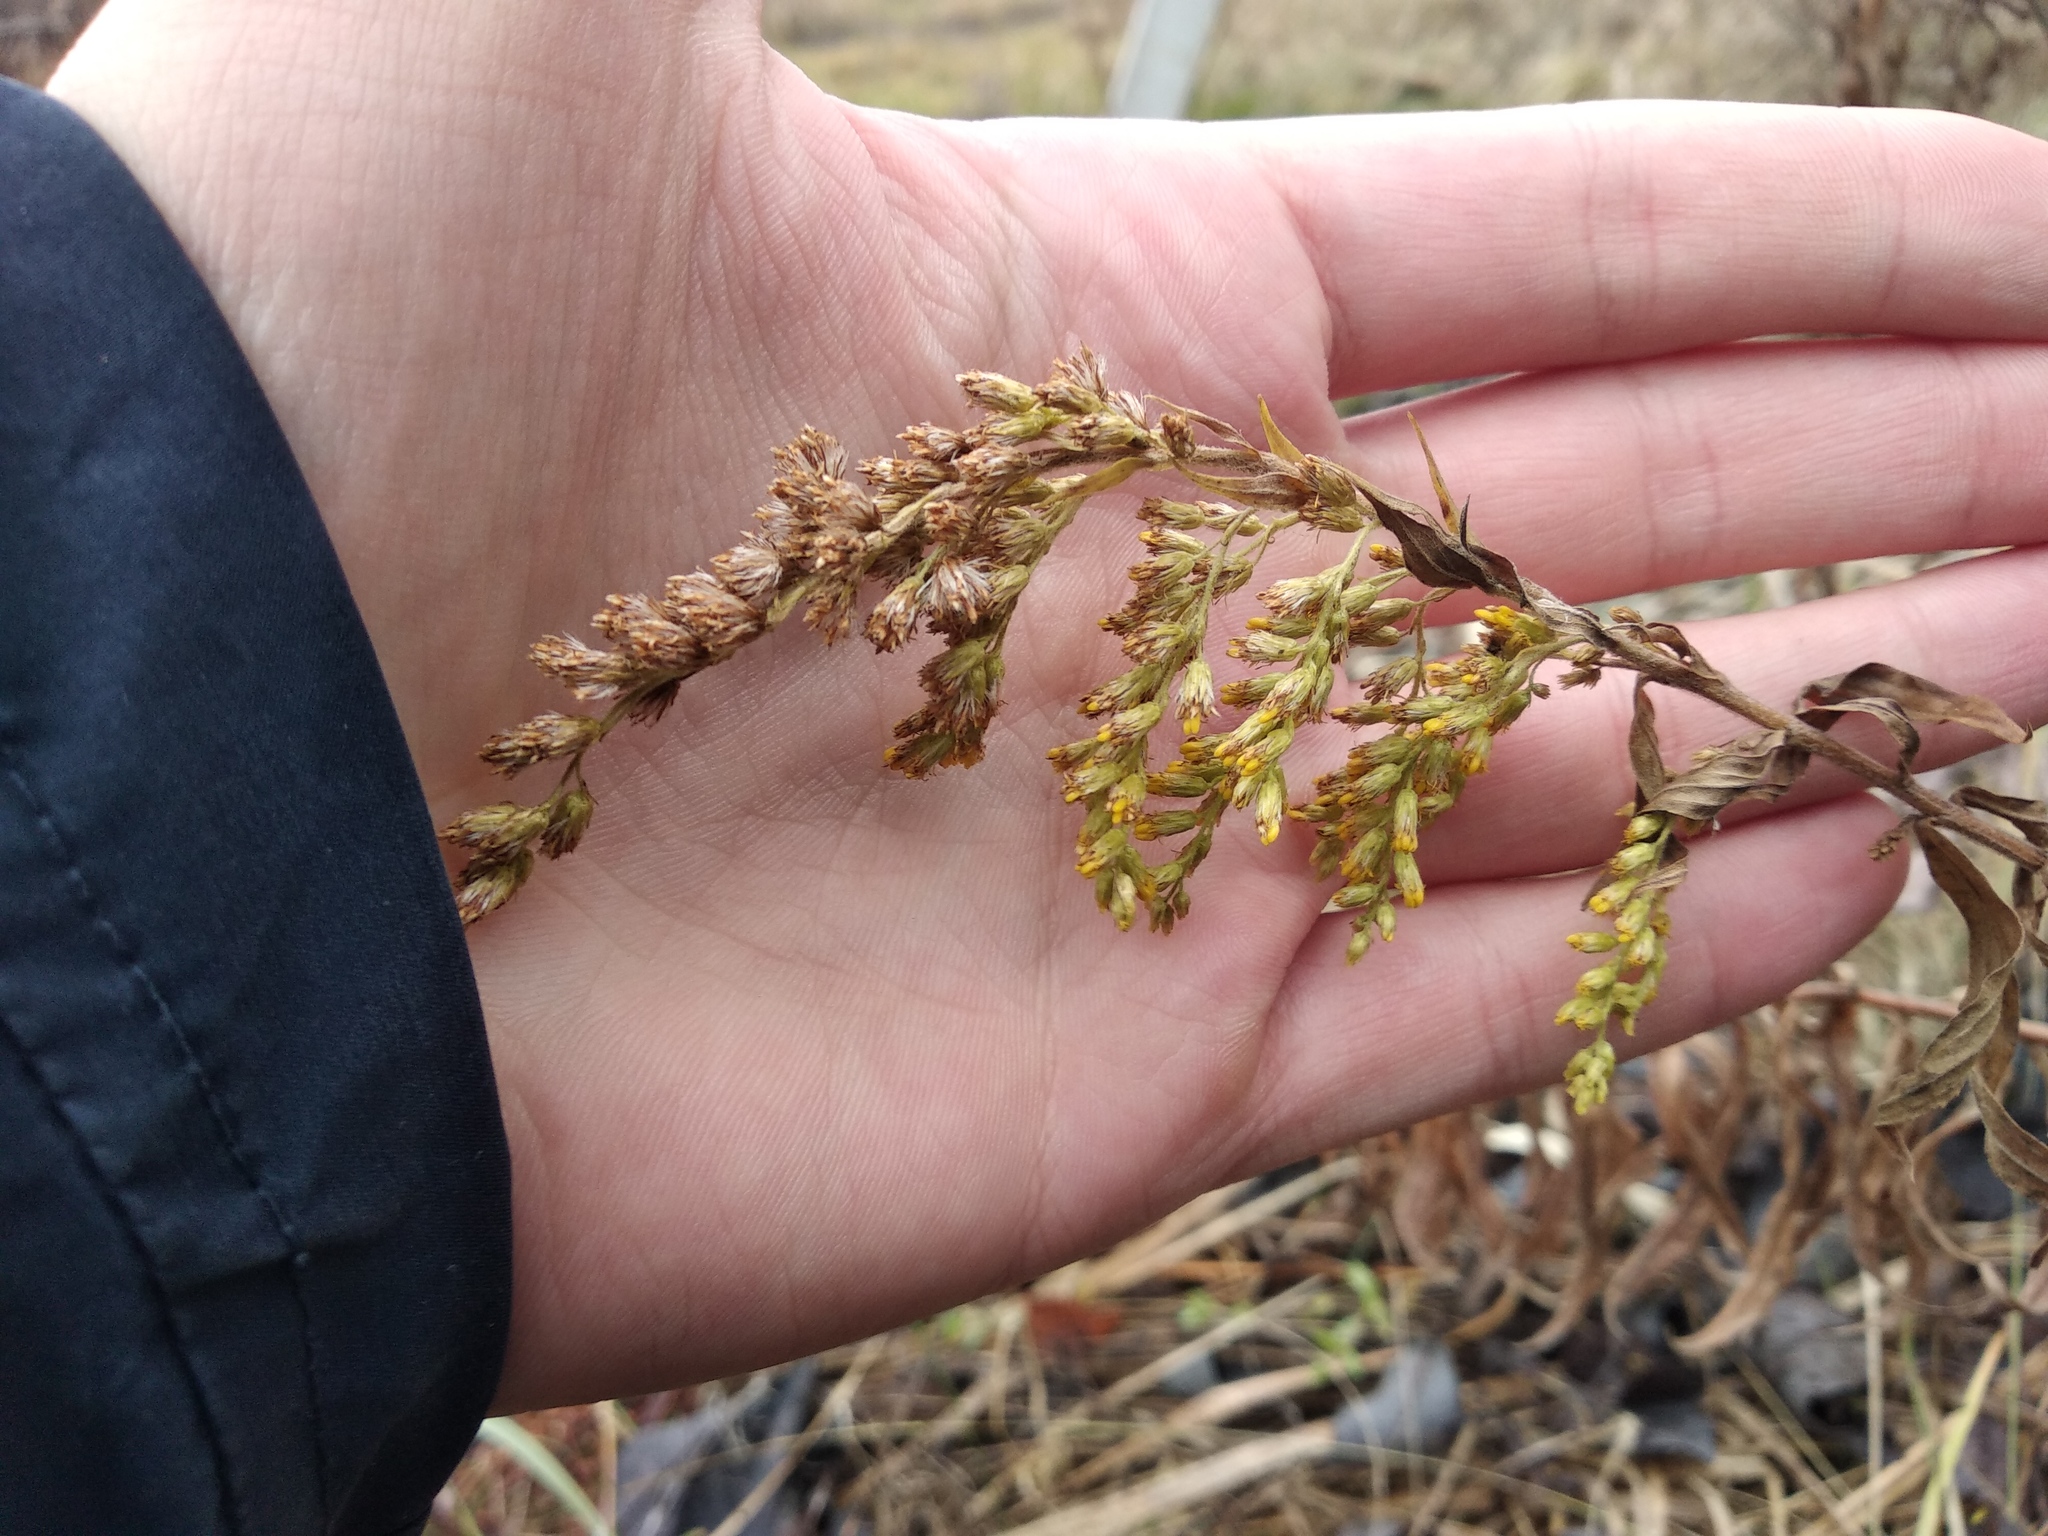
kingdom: Plantae
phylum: Tracheophyta
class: Magnoliopsida
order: Asterales
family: Asteraceae
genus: Solidago
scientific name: Solidago canadensis
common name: Canada goldenrod
